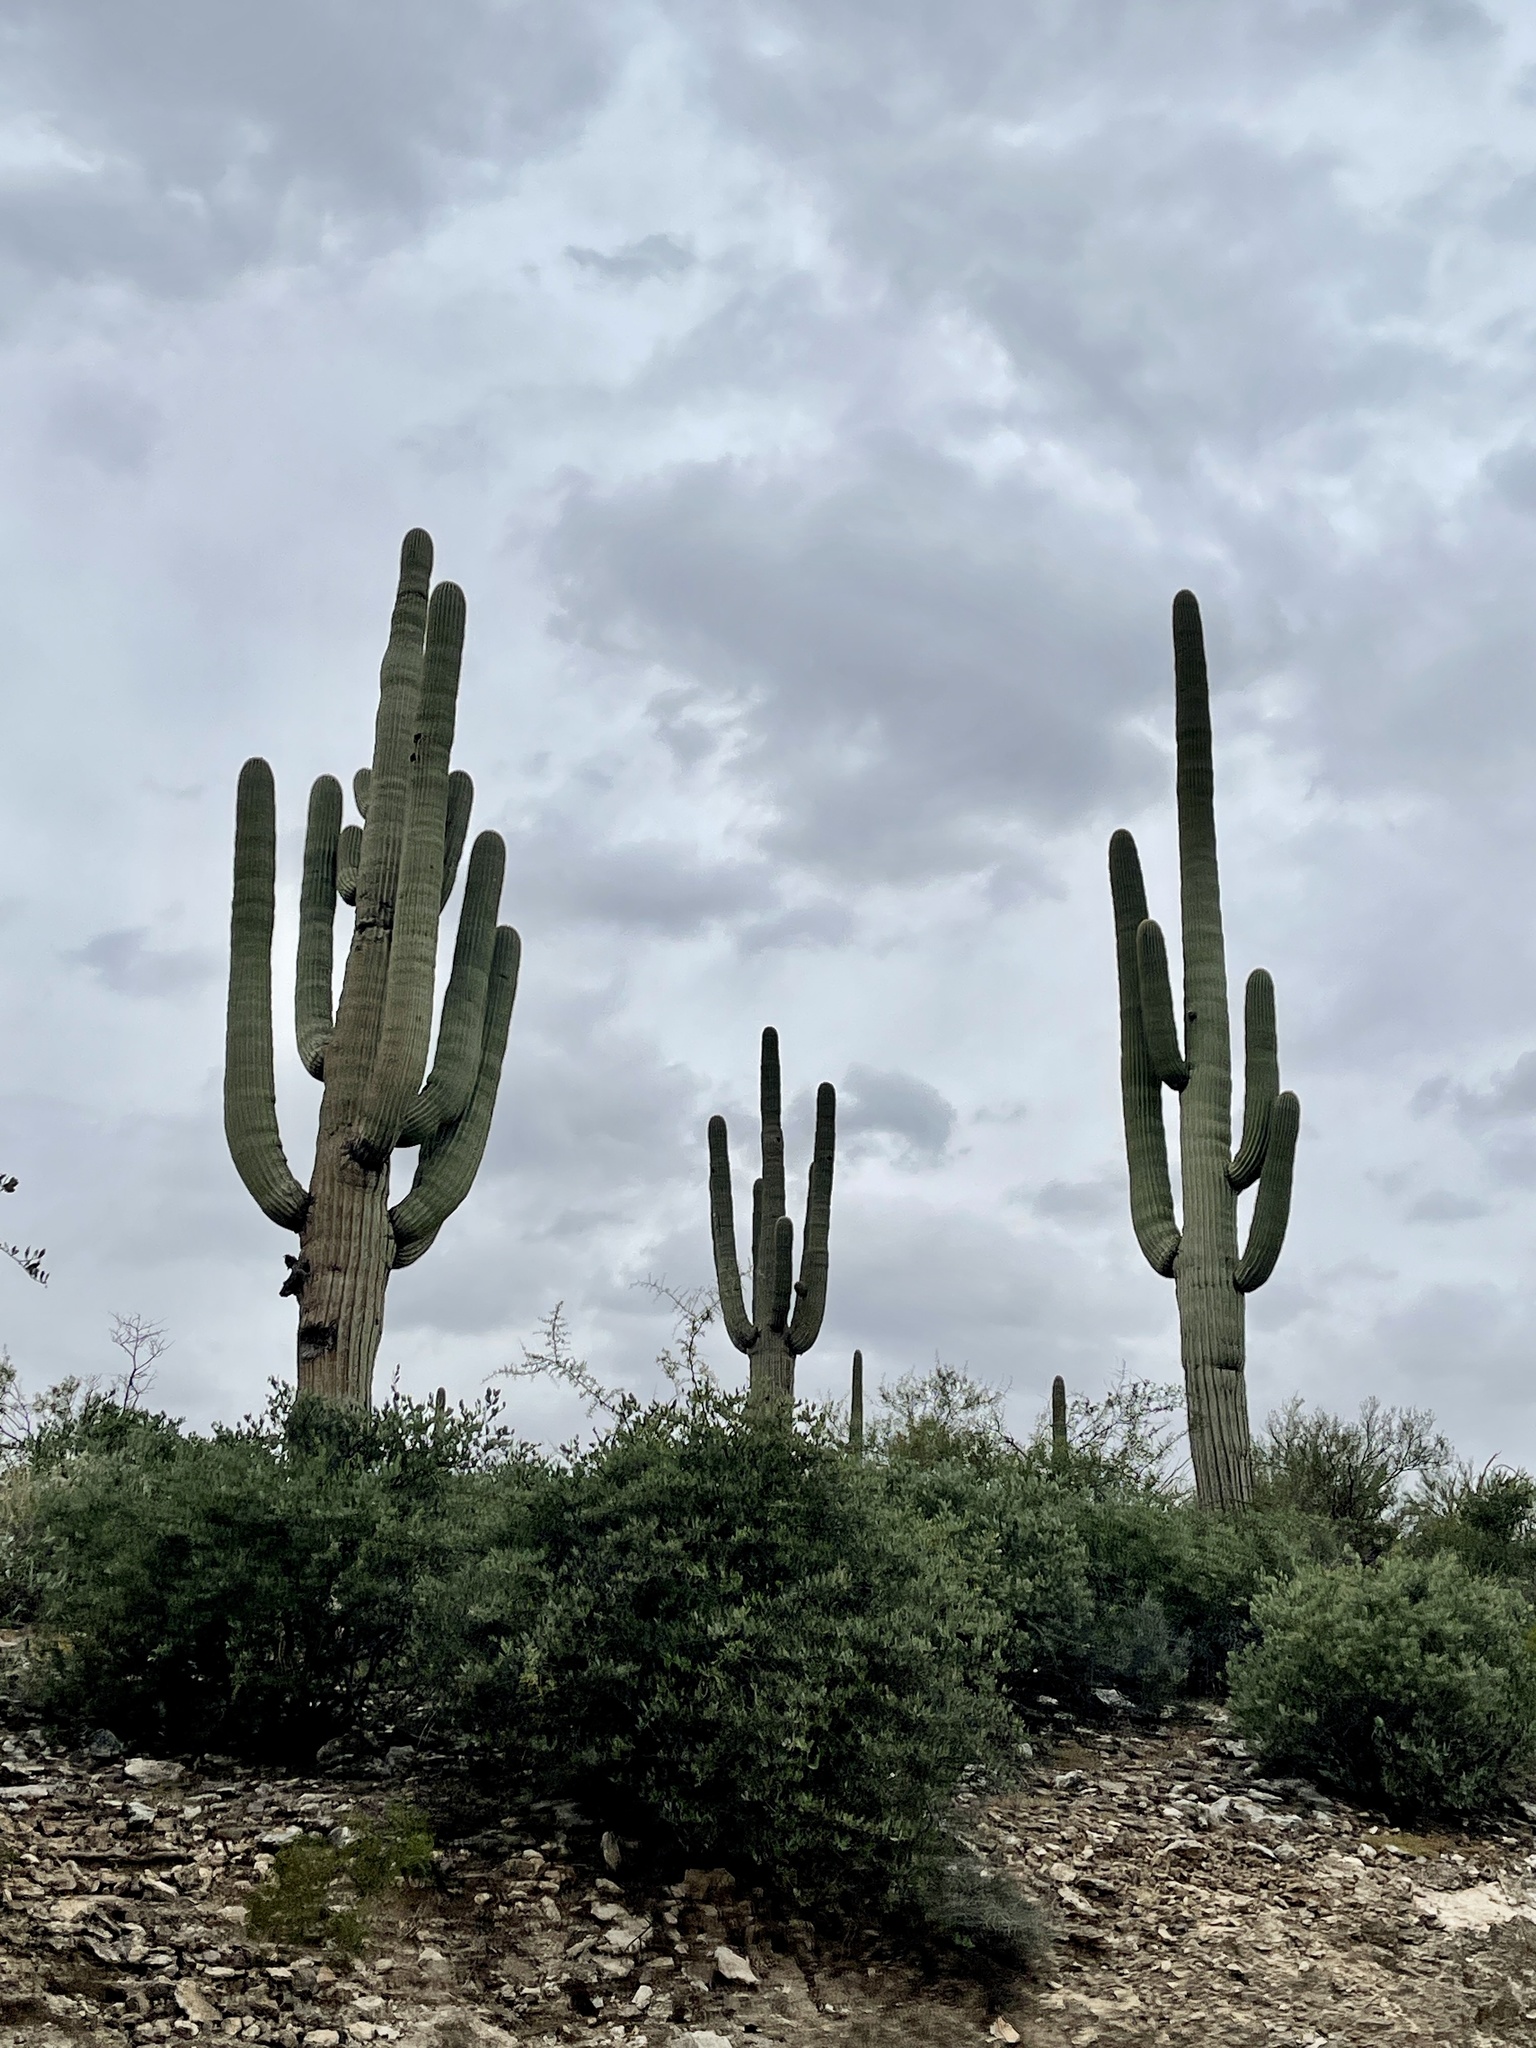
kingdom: Plantae
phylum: Tracheophyta
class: Magnoliopsida
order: Caryophyllales
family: Cactaceae
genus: Carnegiea
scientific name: Carnegiea gigantea
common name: Saguaro
